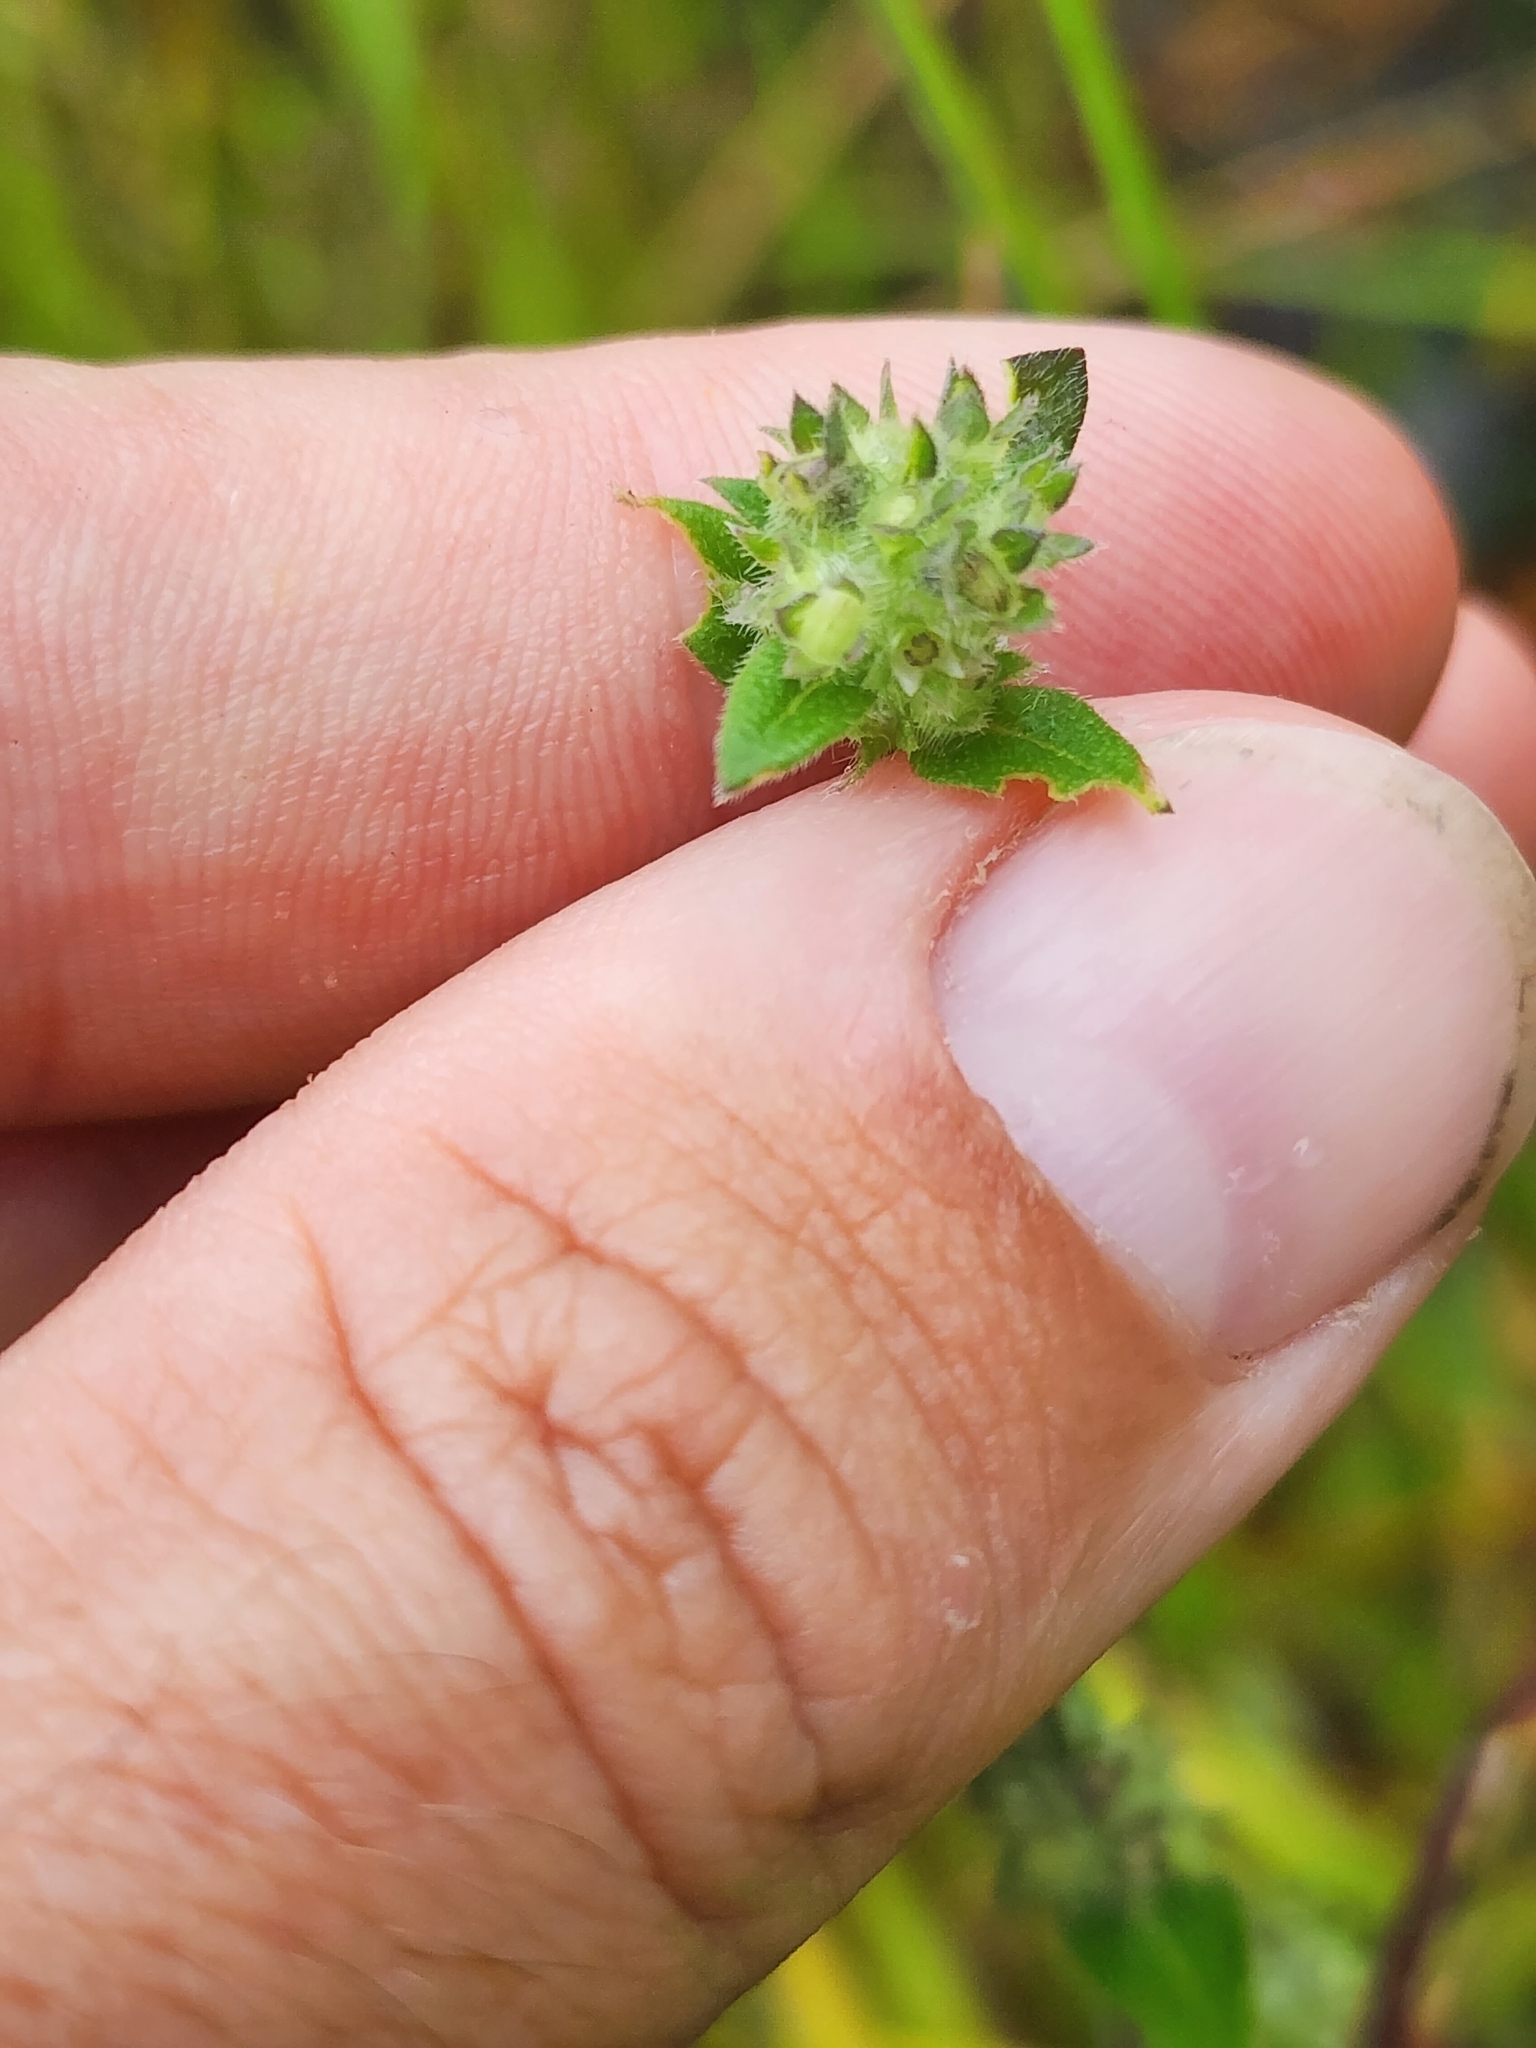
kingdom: Plantae
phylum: Tracheophyta
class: Magnoliopsida
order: Gentianales
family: Rubiaceae
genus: Edrastima
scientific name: Edrastima uniflora
